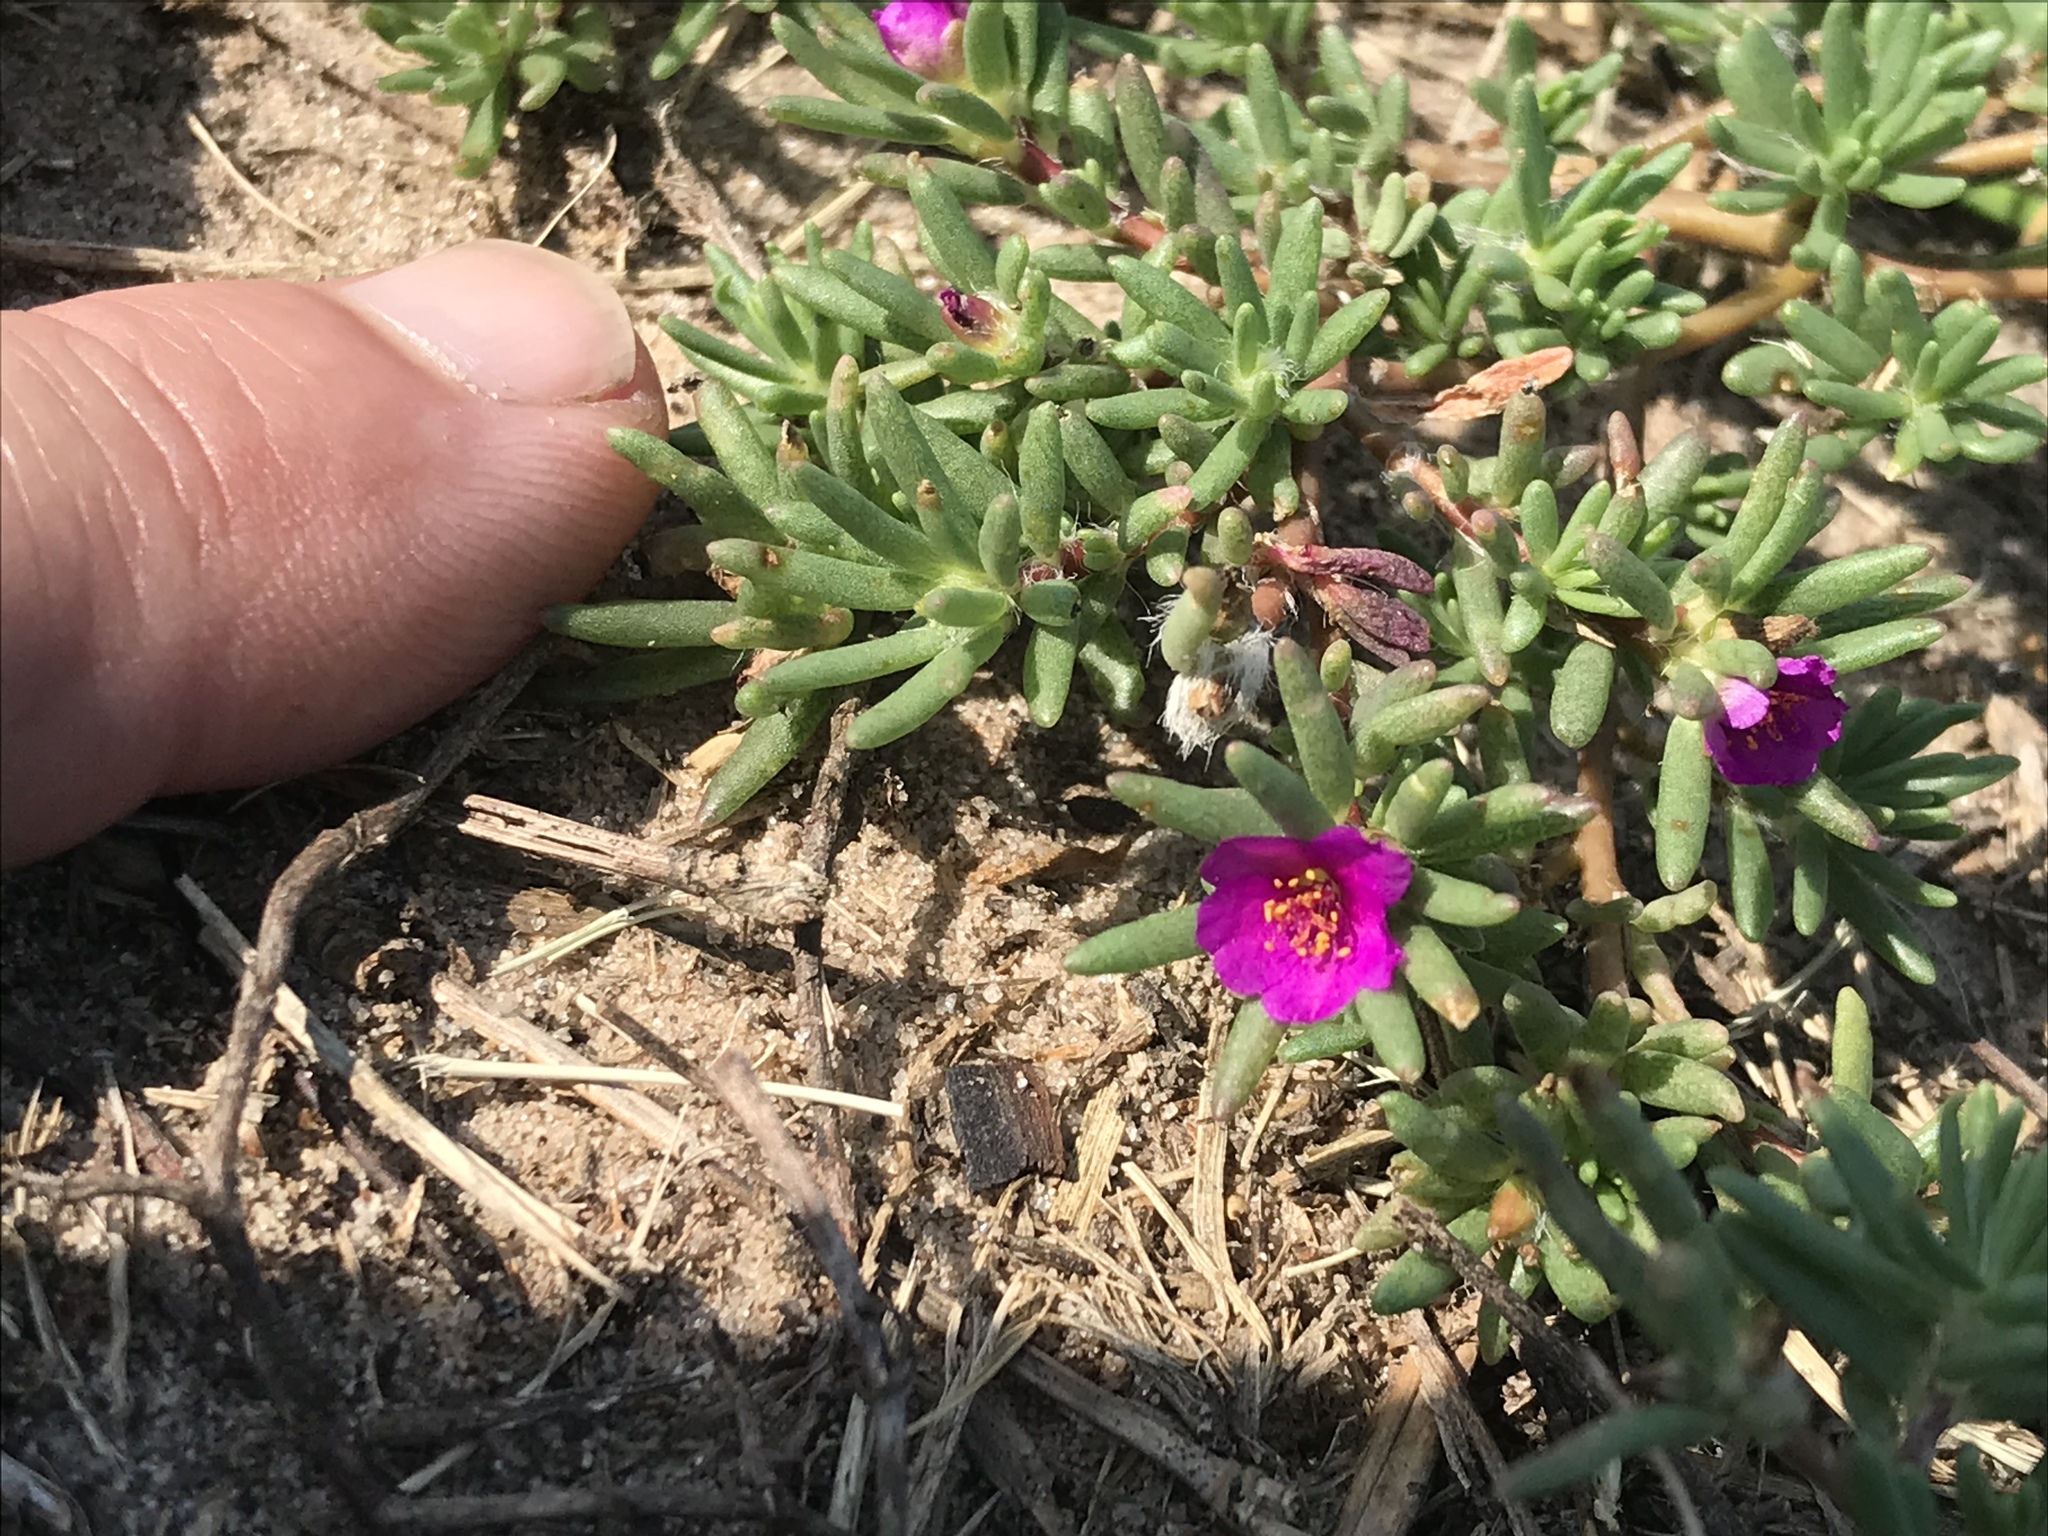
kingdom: Plantae
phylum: Tracheophyta
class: Magnoliopsida
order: Caryophyllales
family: Portulacaceae
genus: Portulaca
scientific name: Portulaca pilosa
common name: Kiss me quick
